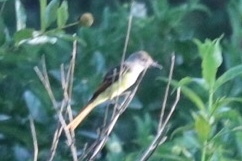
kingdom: Animalia
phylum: Chordata
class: Aves
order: Passeriformes
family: Tyrannidae
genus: Myiarchus
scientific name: Myiarchus crinitus
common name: Great crested flycatcher
